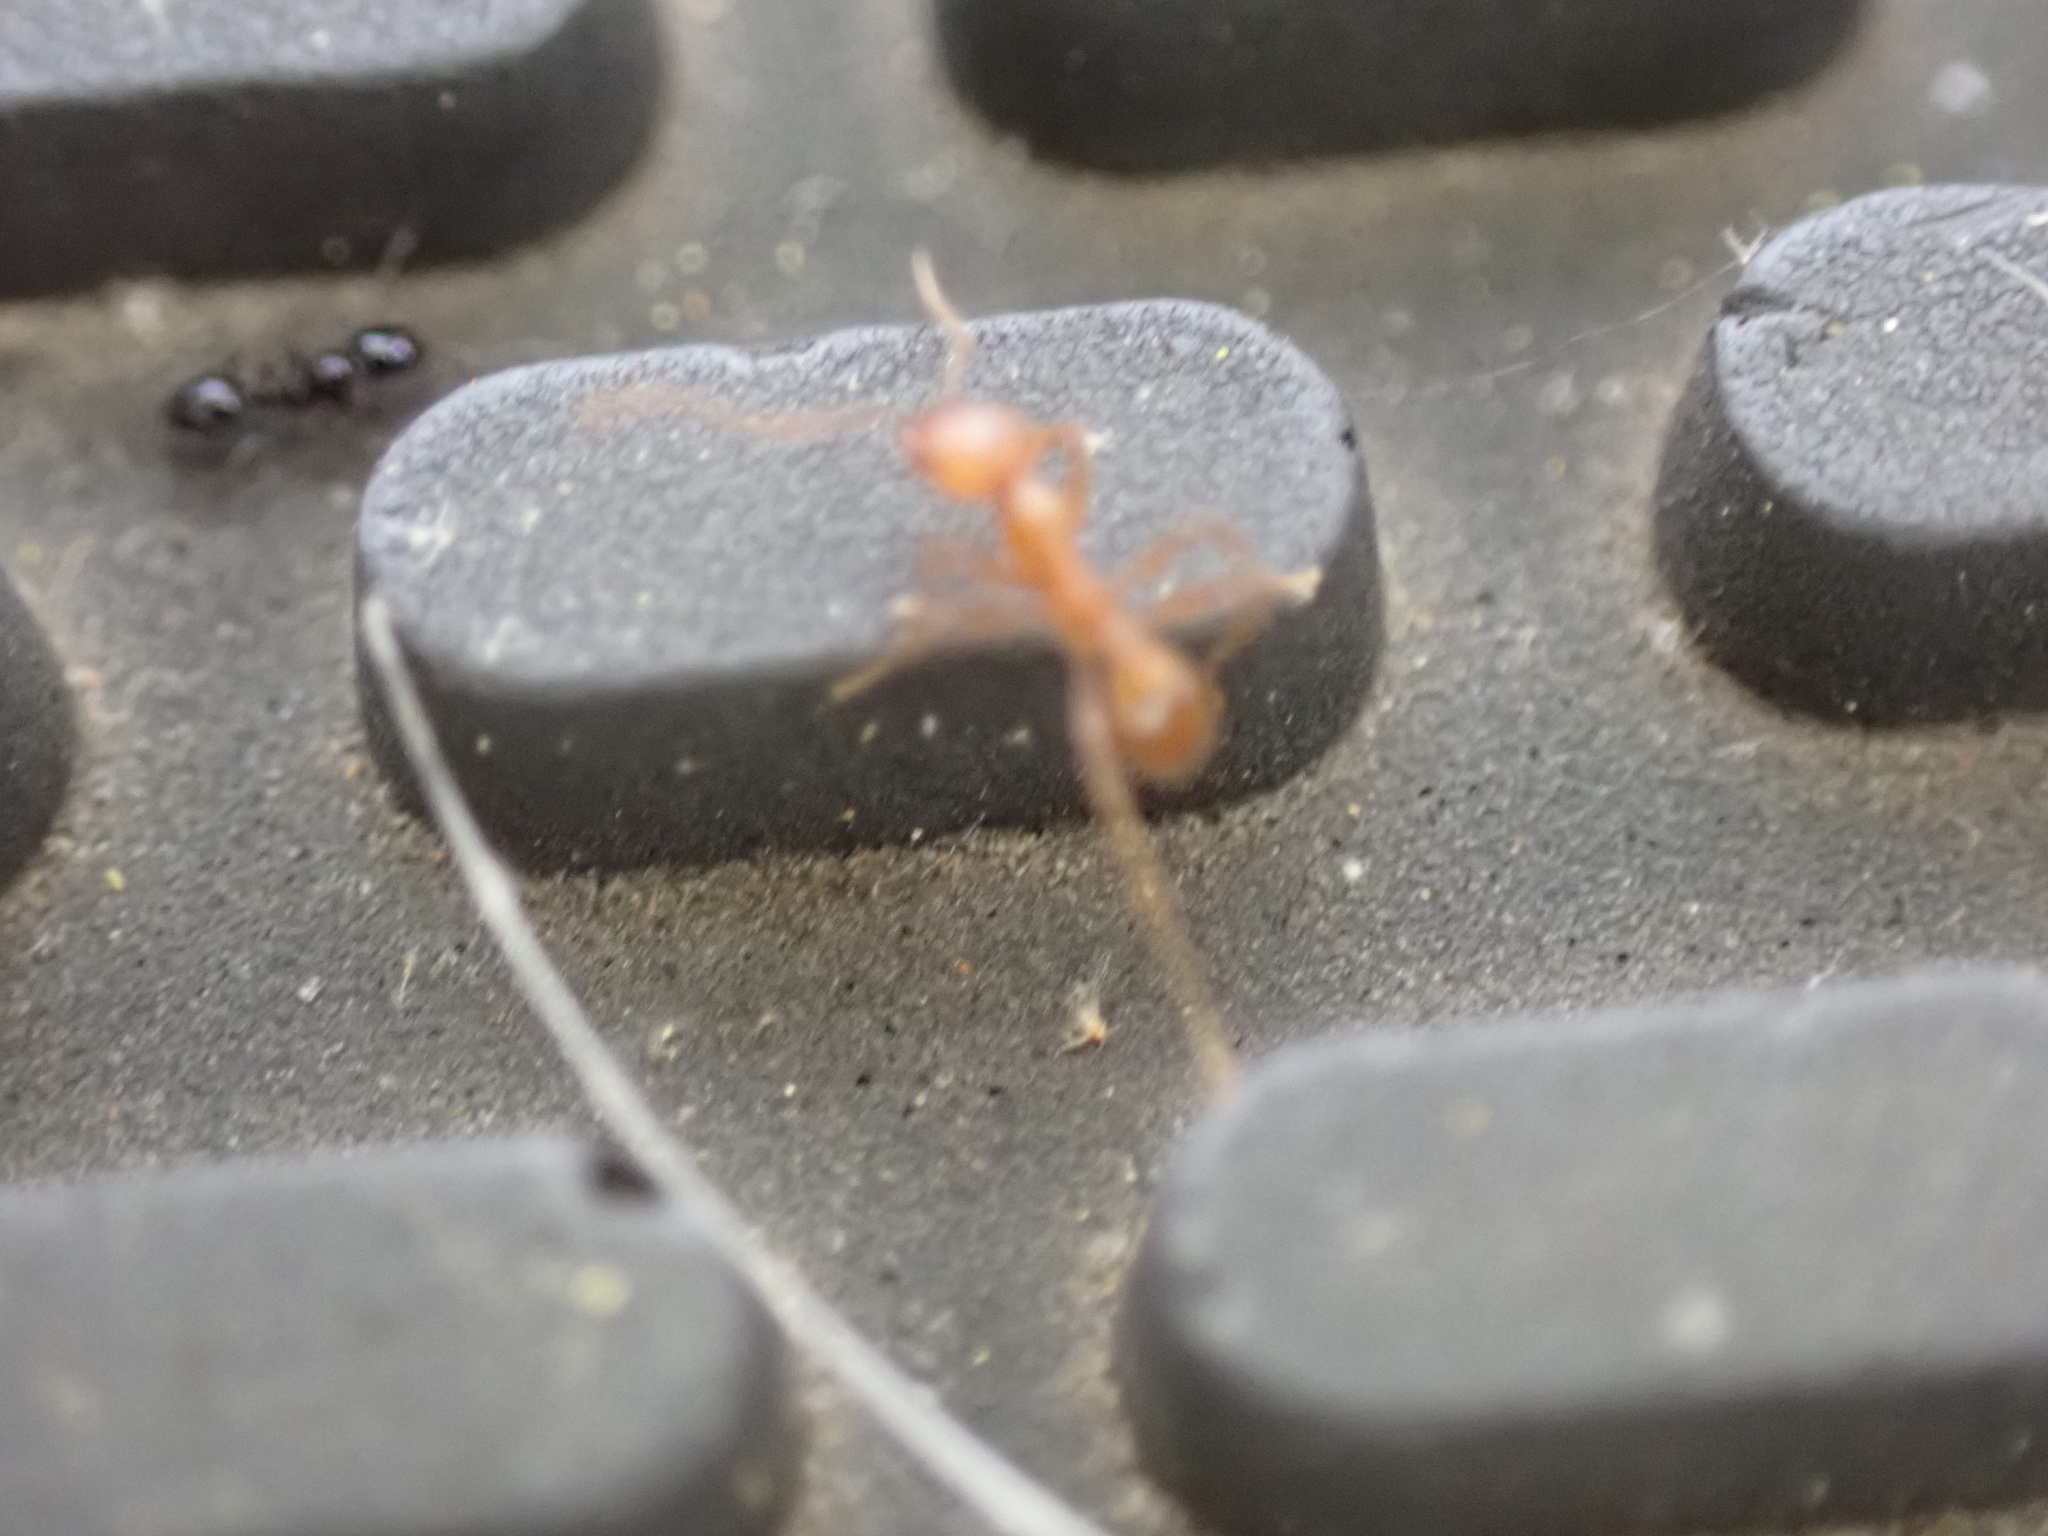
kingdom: Animalia
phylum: Arthropoda
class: Insecta
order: Hymenoptera
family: Formicidae
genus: Pheidole
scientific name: Pheidole dentata
